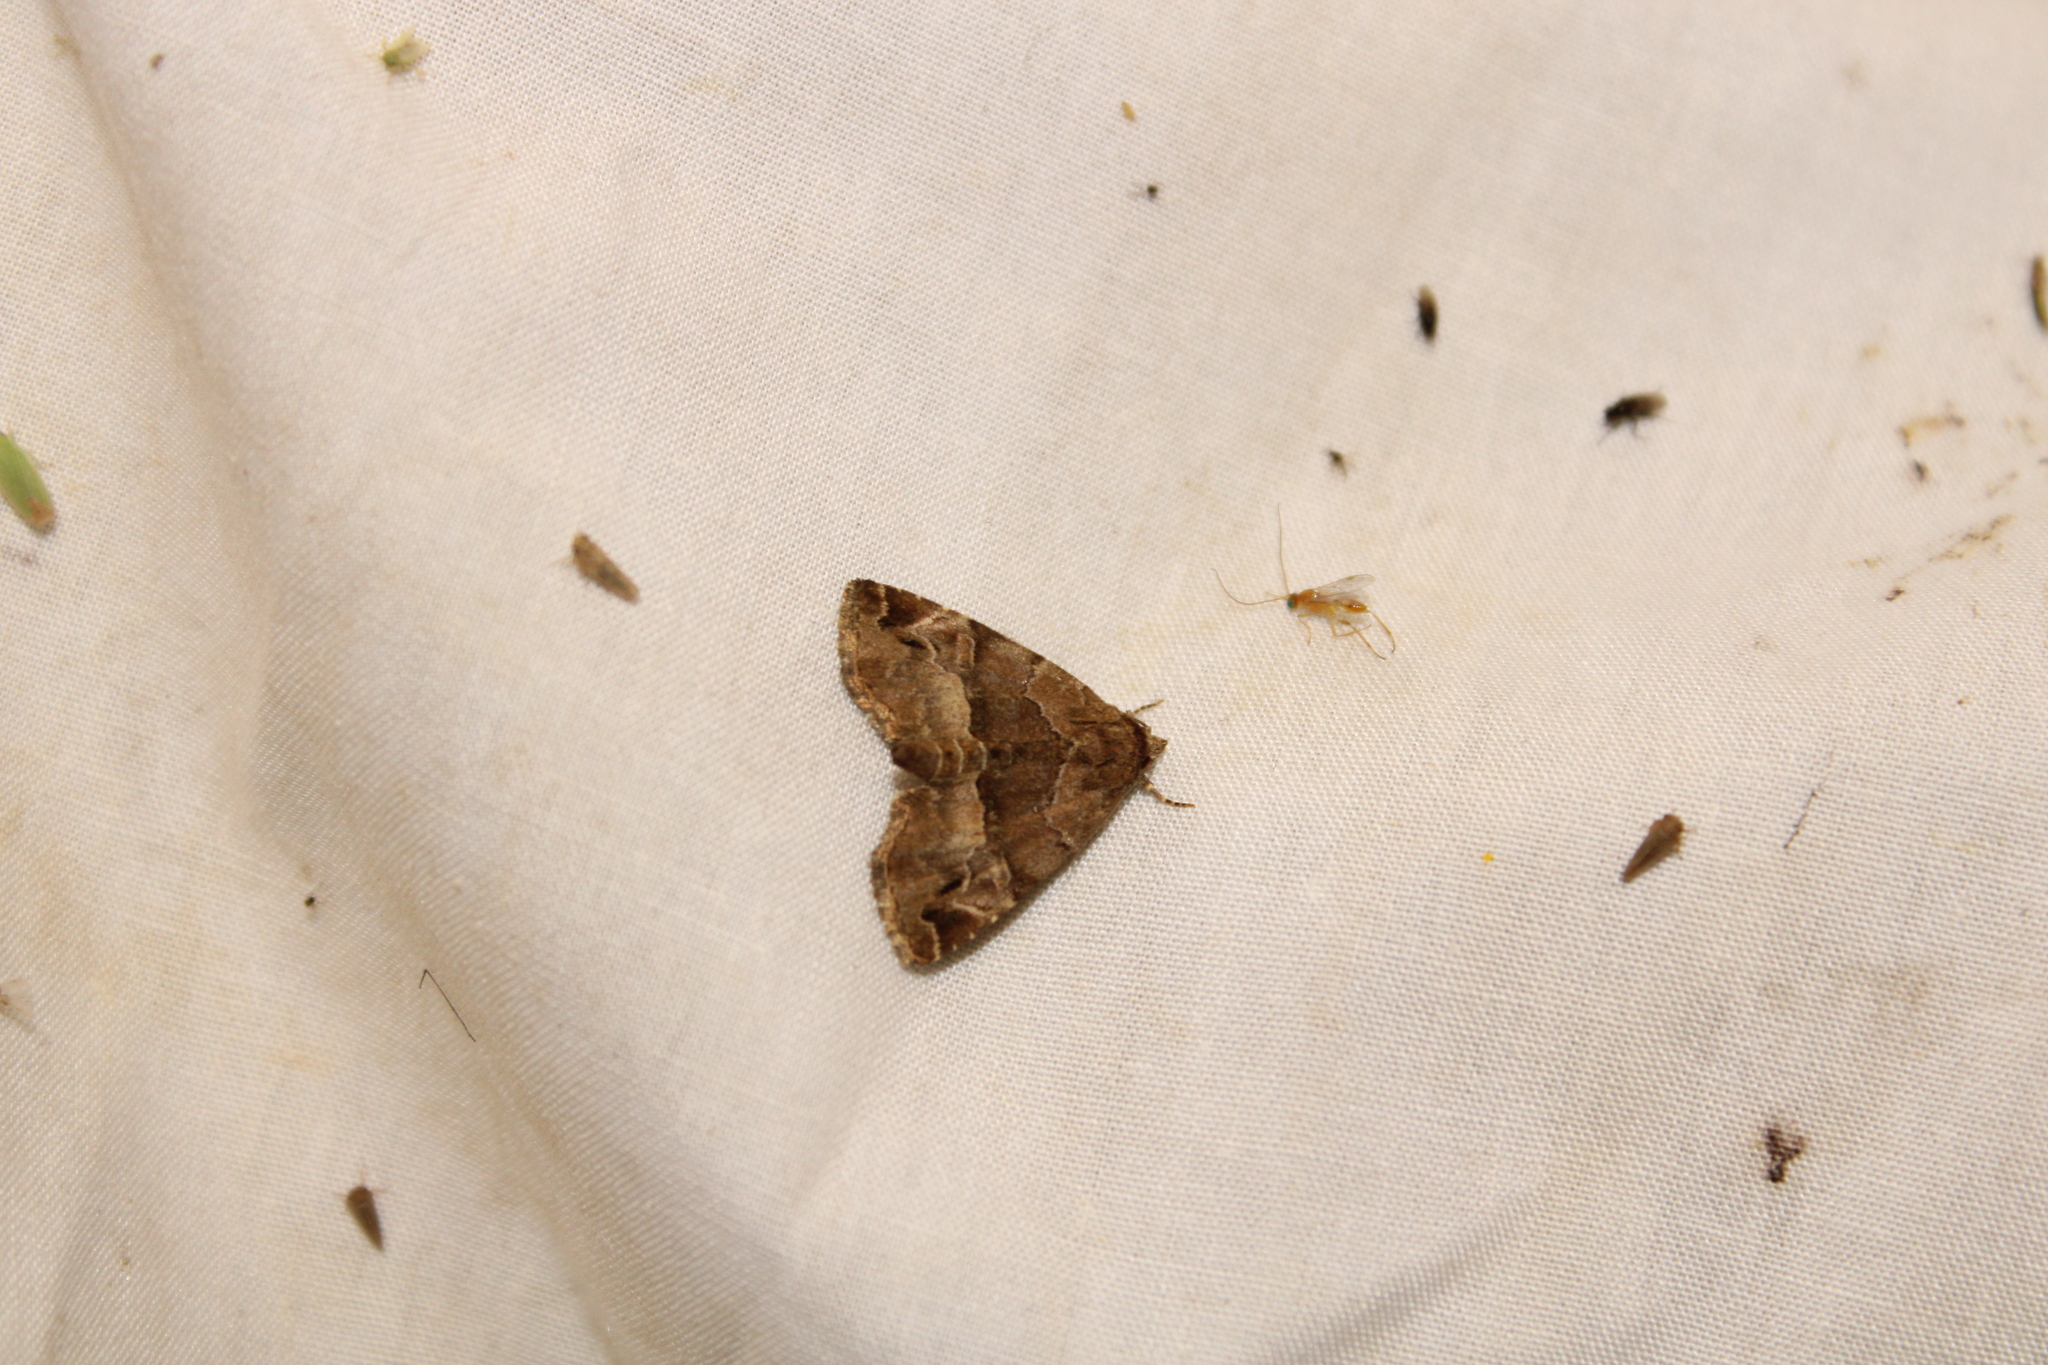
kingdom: Animalia
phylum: Arthropoda
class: Insecta
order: Lepidoptera
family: Noctuidae
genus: Niphonyx
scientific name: Niphonyx segregata
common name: Hops angleshade moth
